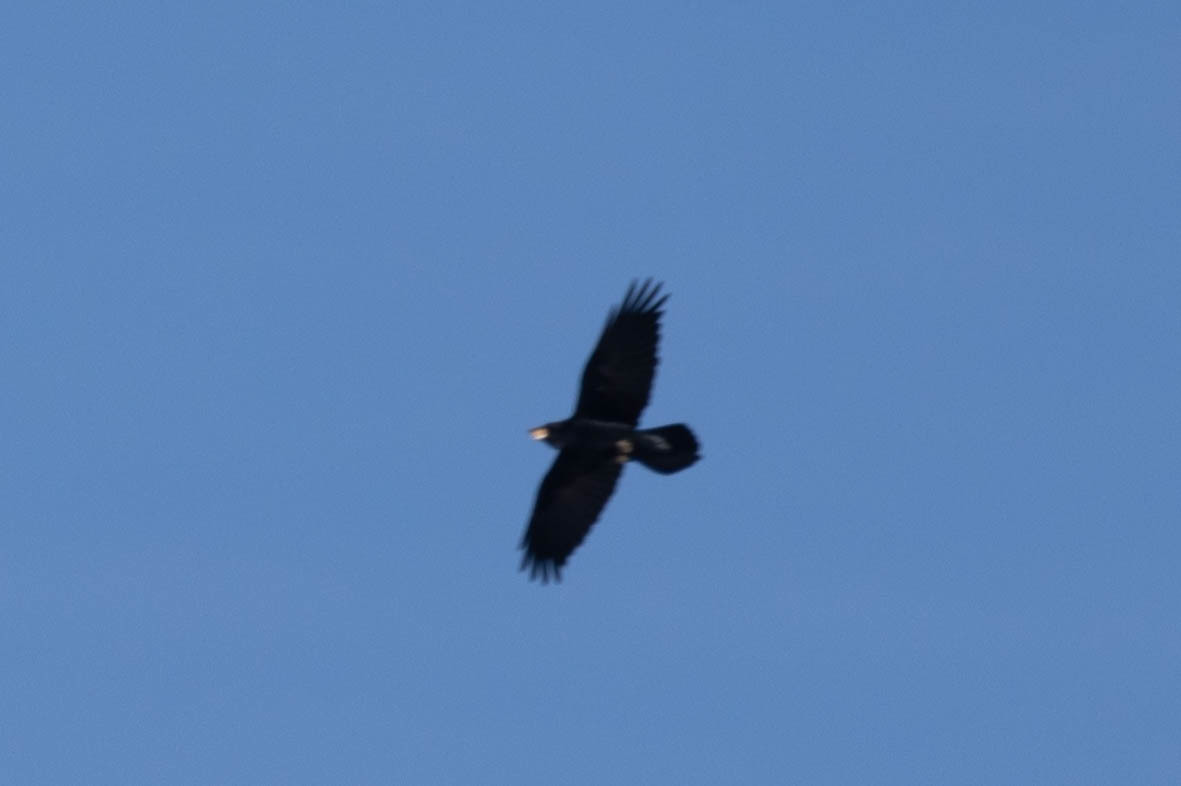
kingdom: Animalia
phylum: Chordata
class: Aves
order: Passeriformes
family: Corvidae
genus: Corvus
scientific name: Corvus corax
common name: Common raven
